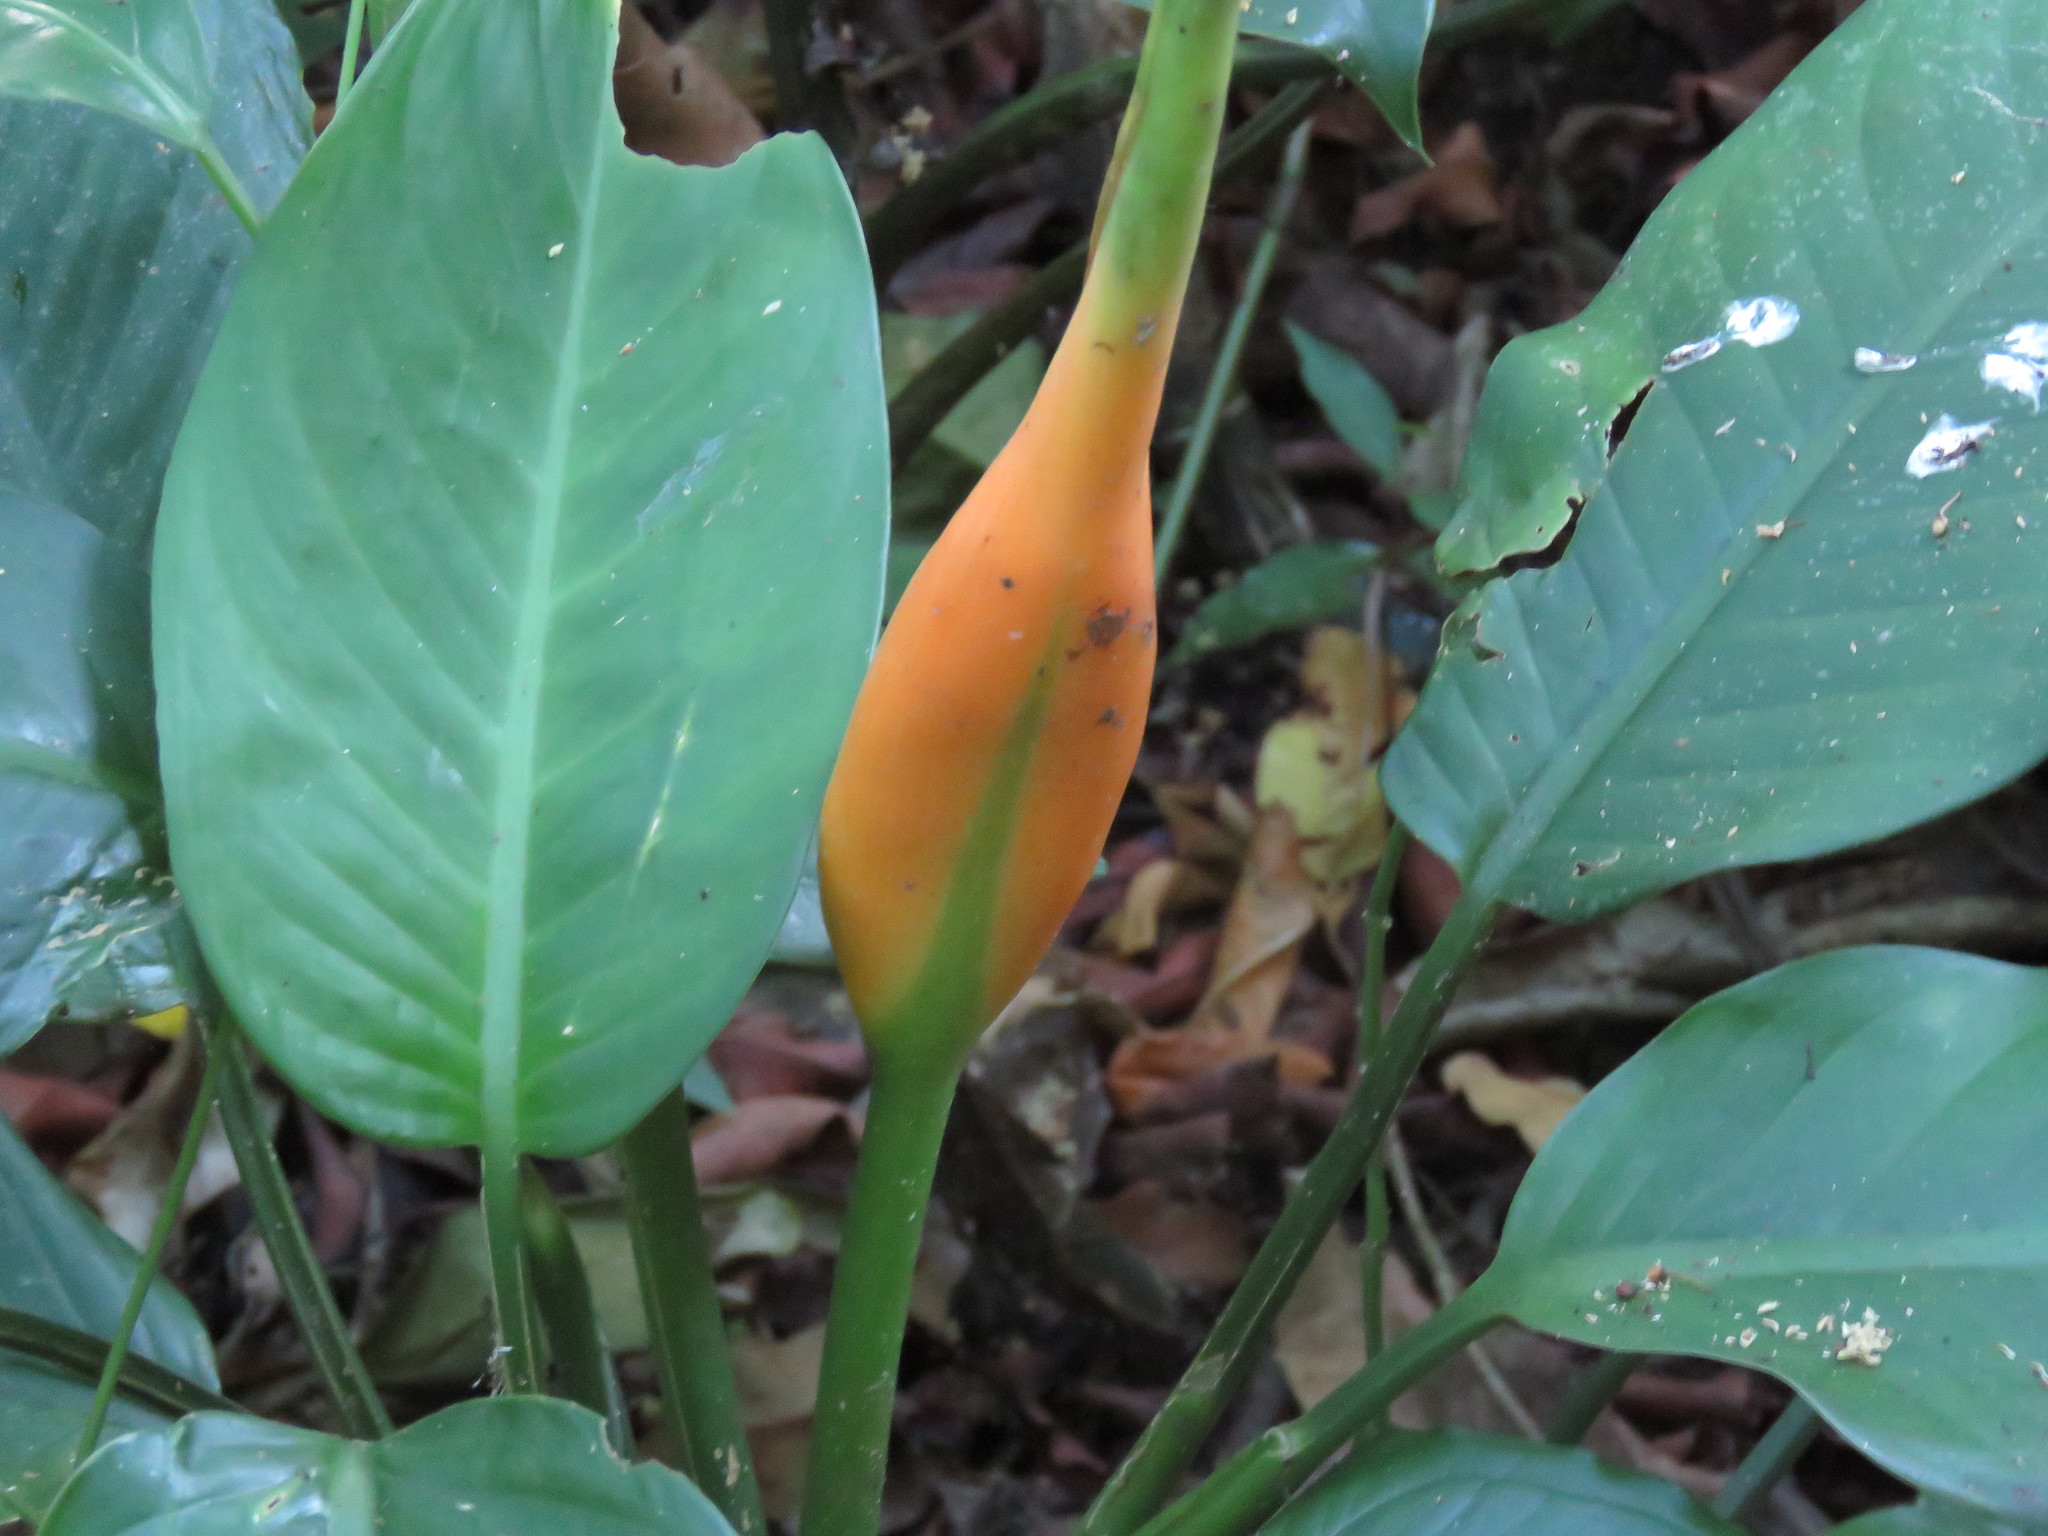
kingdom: Plantae
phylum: Tracheophyta
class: Liliopsida
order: Alismatales
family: Araceae
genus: Dieffenbachia
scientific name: Dieffenbachia wendlandii
